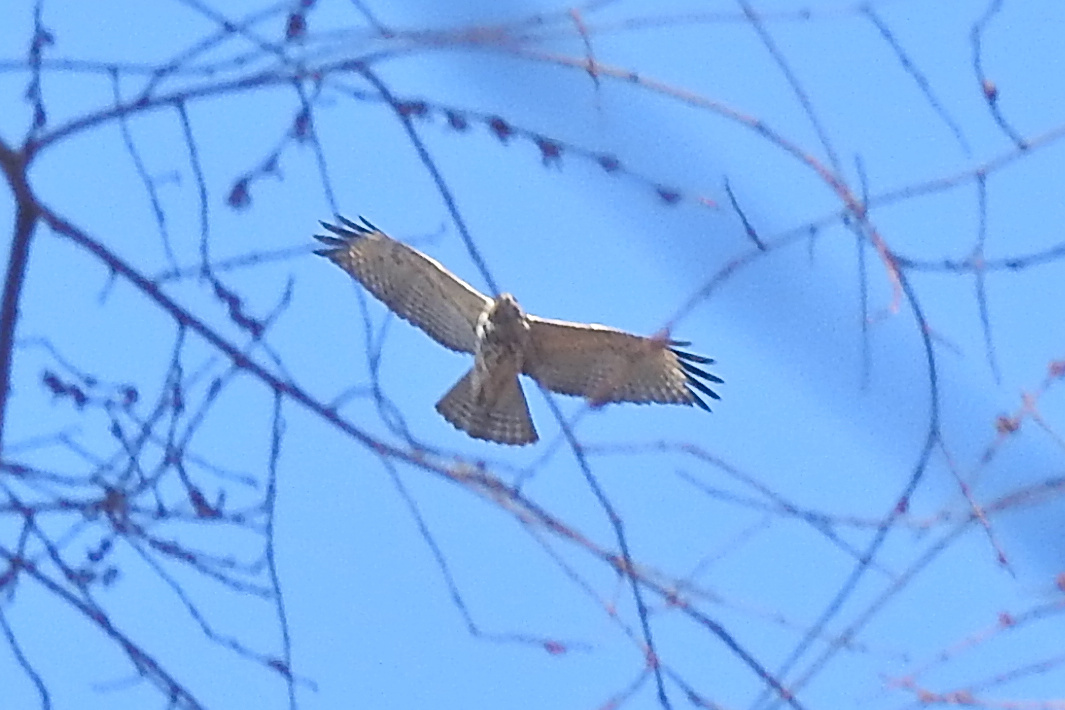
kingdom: Animalia
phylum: Chordata
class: Aves
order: Accipitriformes
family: Accipitridae
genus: Buteo
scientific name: Buteo lineatus
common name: Red-shouldered hawk
